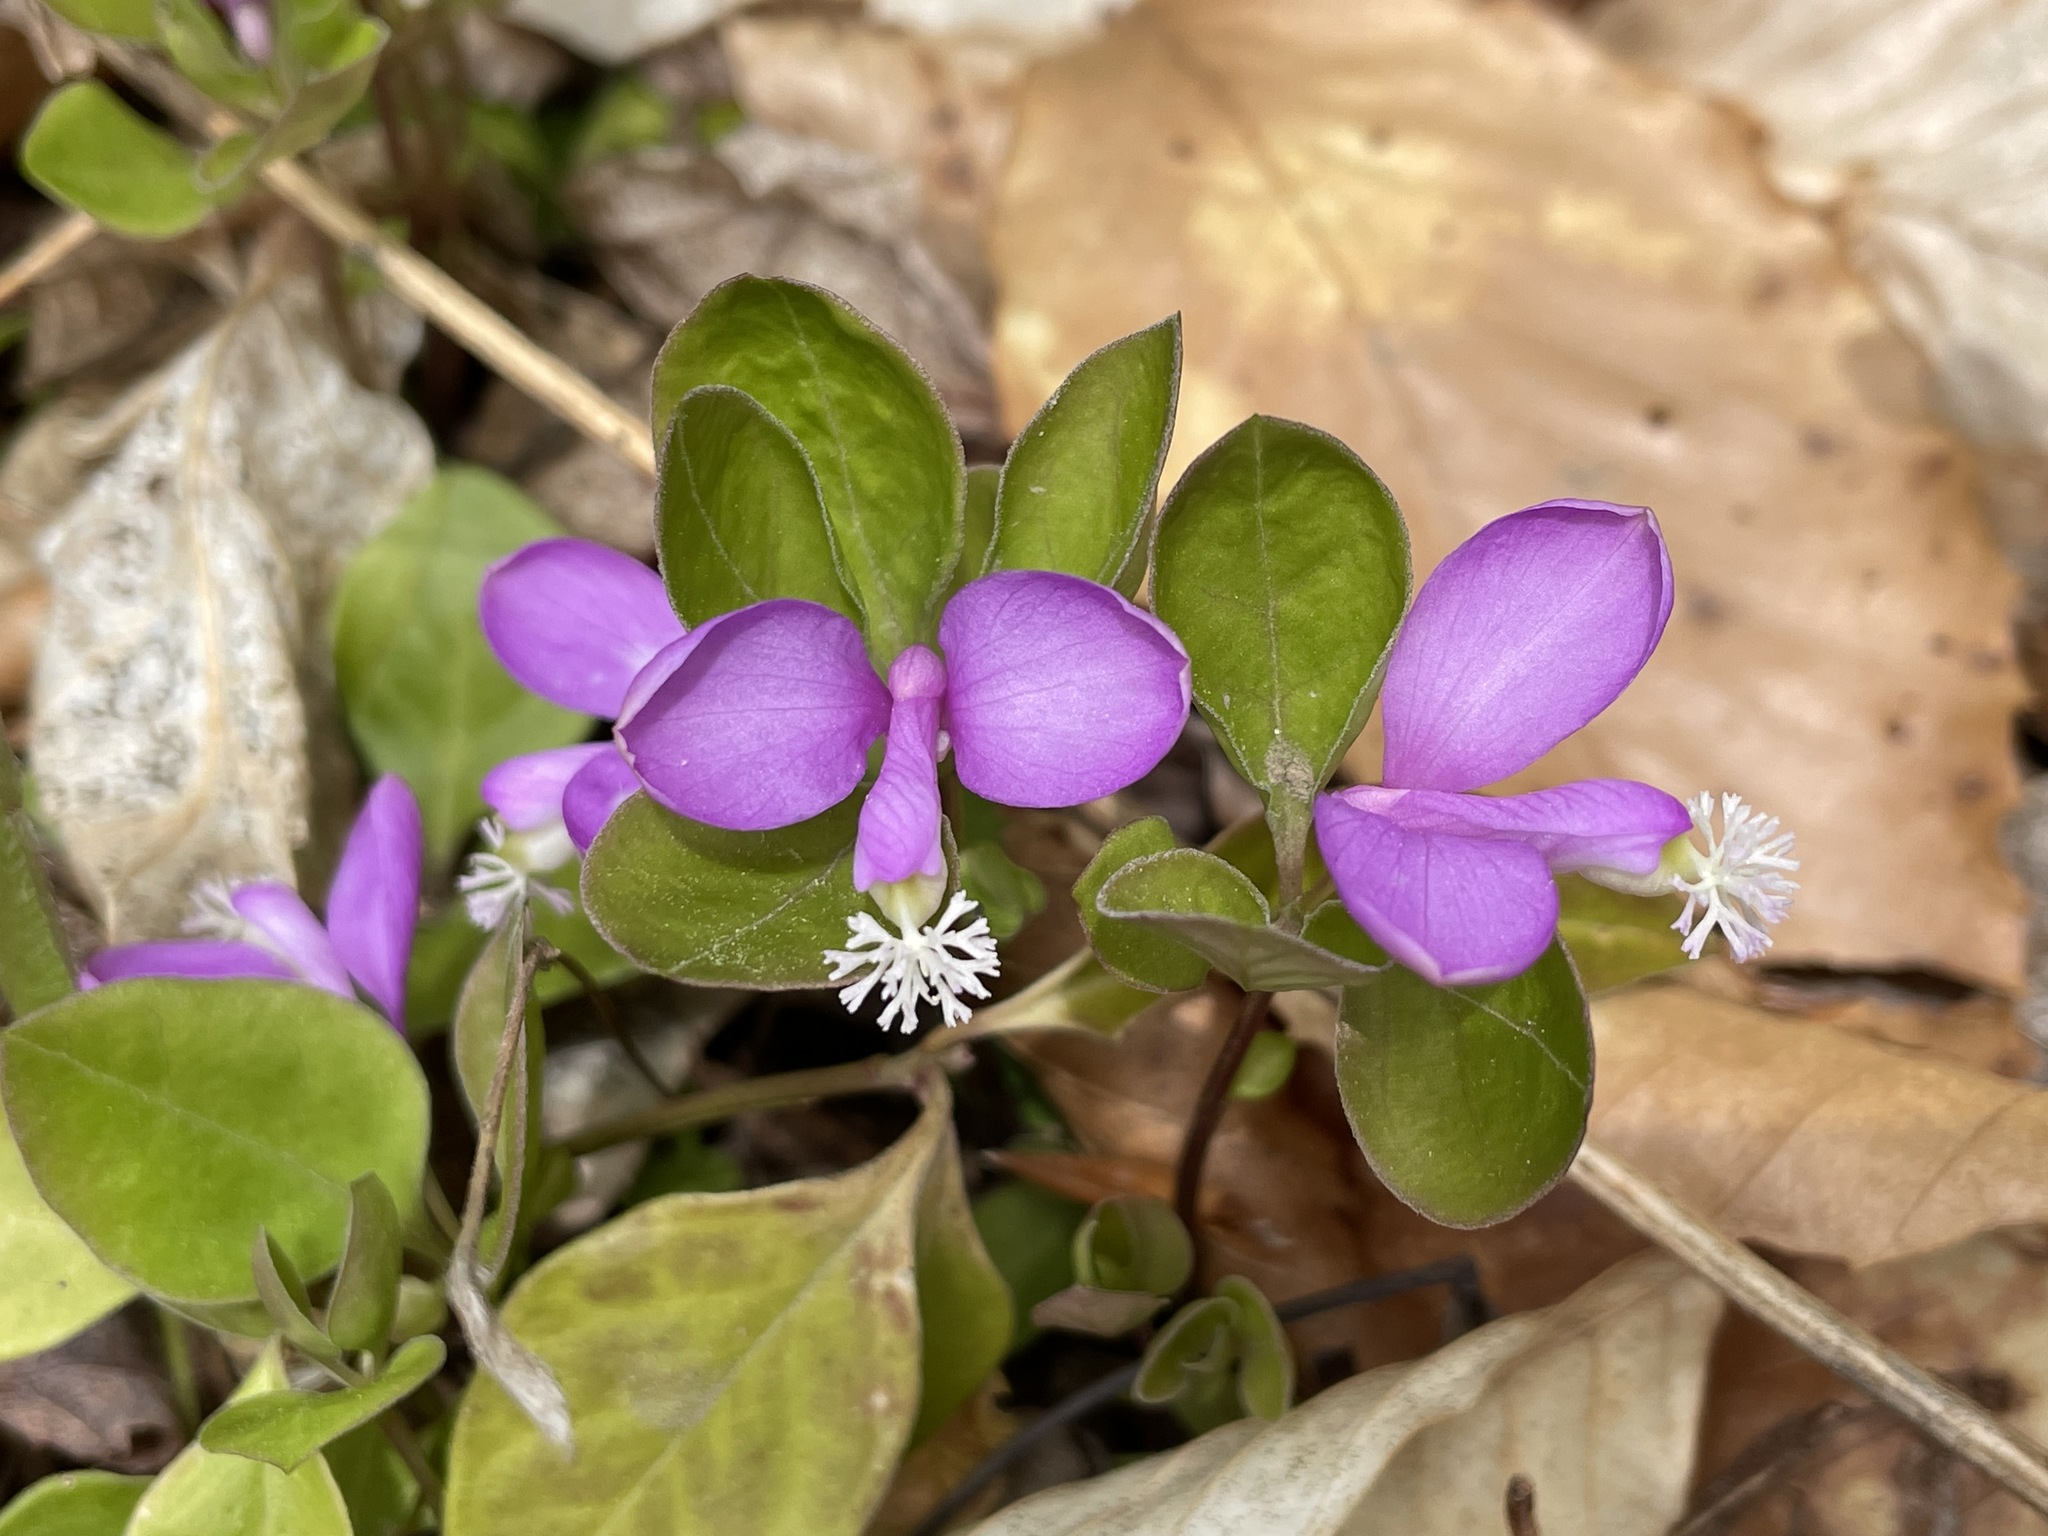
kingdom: Plantae
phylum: Tracheophyta
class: Magnoliopsida
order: Fabales
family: Polygalaceae
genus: Polygaloides
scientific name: Polygaloides paucifolia
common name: Bird-on-the-wing
